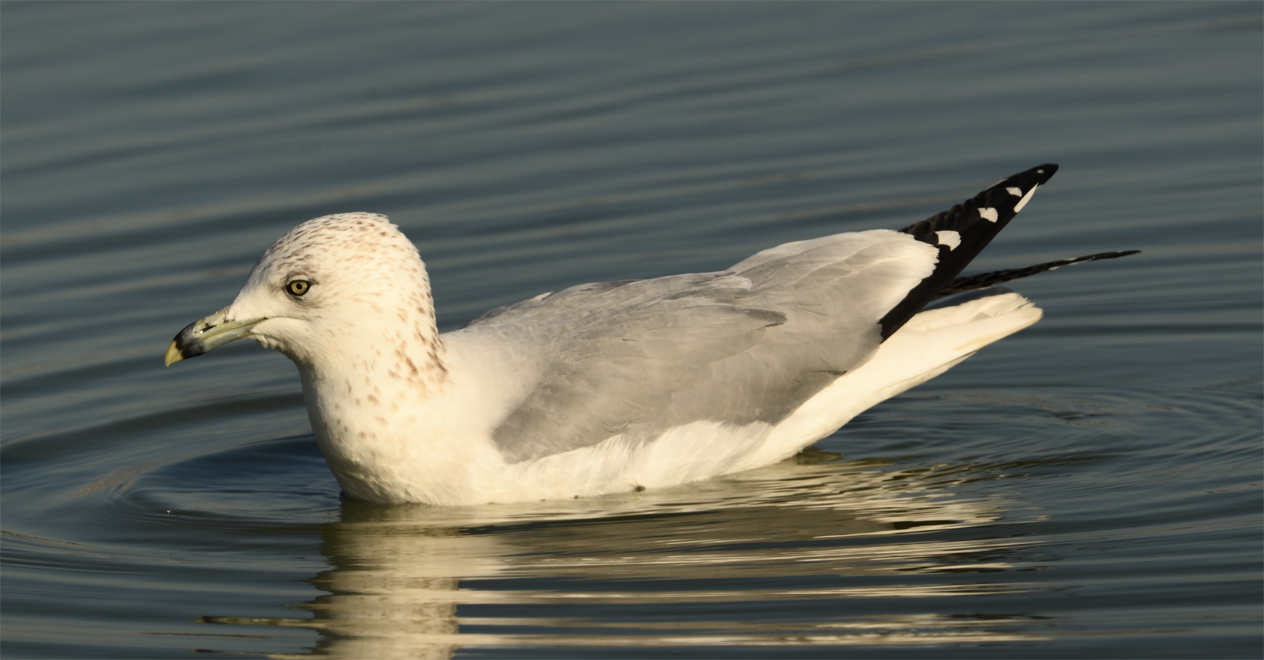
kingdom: Animalia
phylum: Chordata
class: Aves
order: Charadriiformes
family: Laridae
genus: Larus
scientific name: Larus delawarensis
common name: Ring-billed gull
